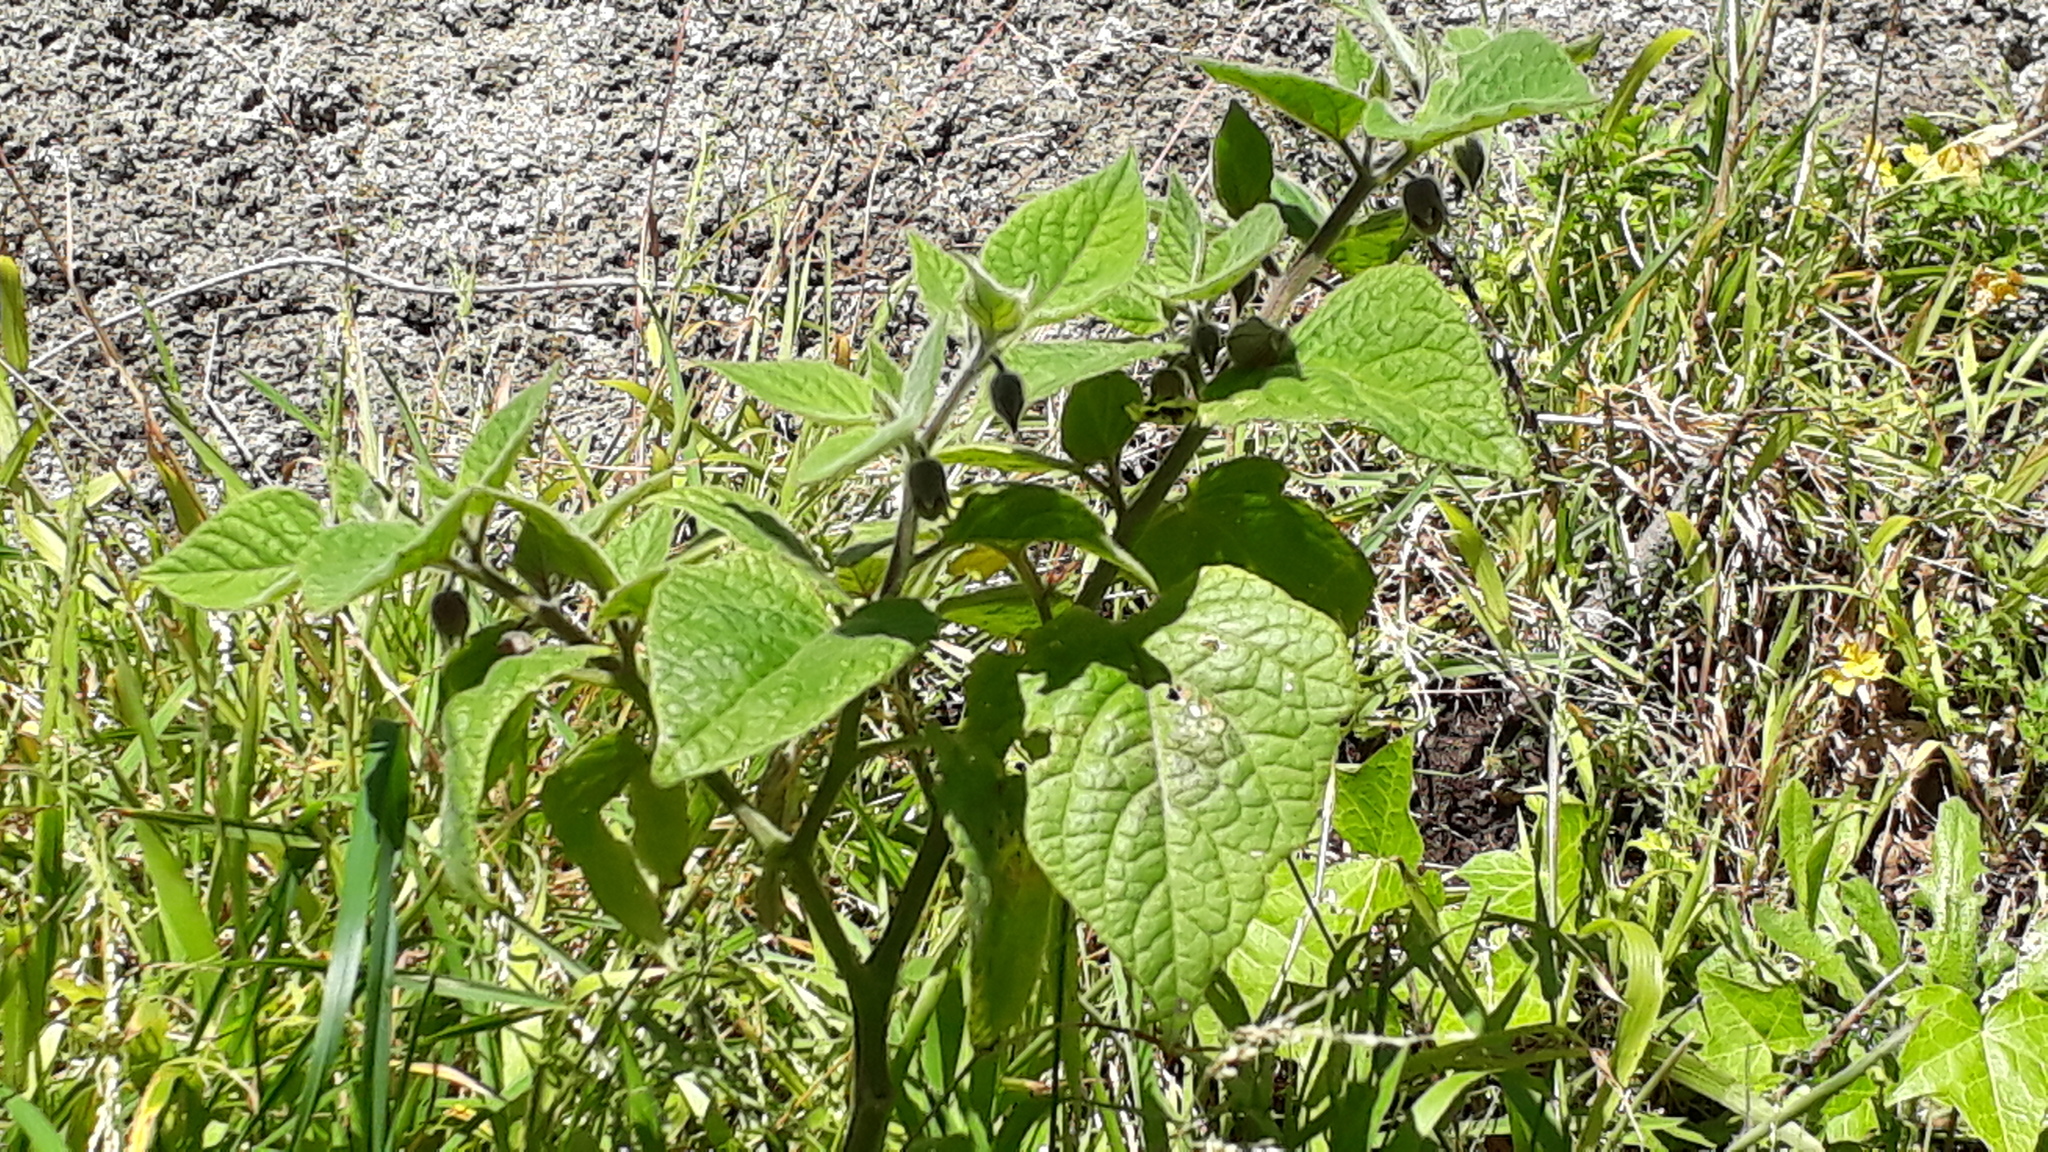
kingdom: Plantae
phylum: Tracheophyta
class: Magnoliopsida
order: Solanales
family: Solanaceae
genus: Physalis
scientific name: Physalis peruviana
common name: Cape-gooseberry
